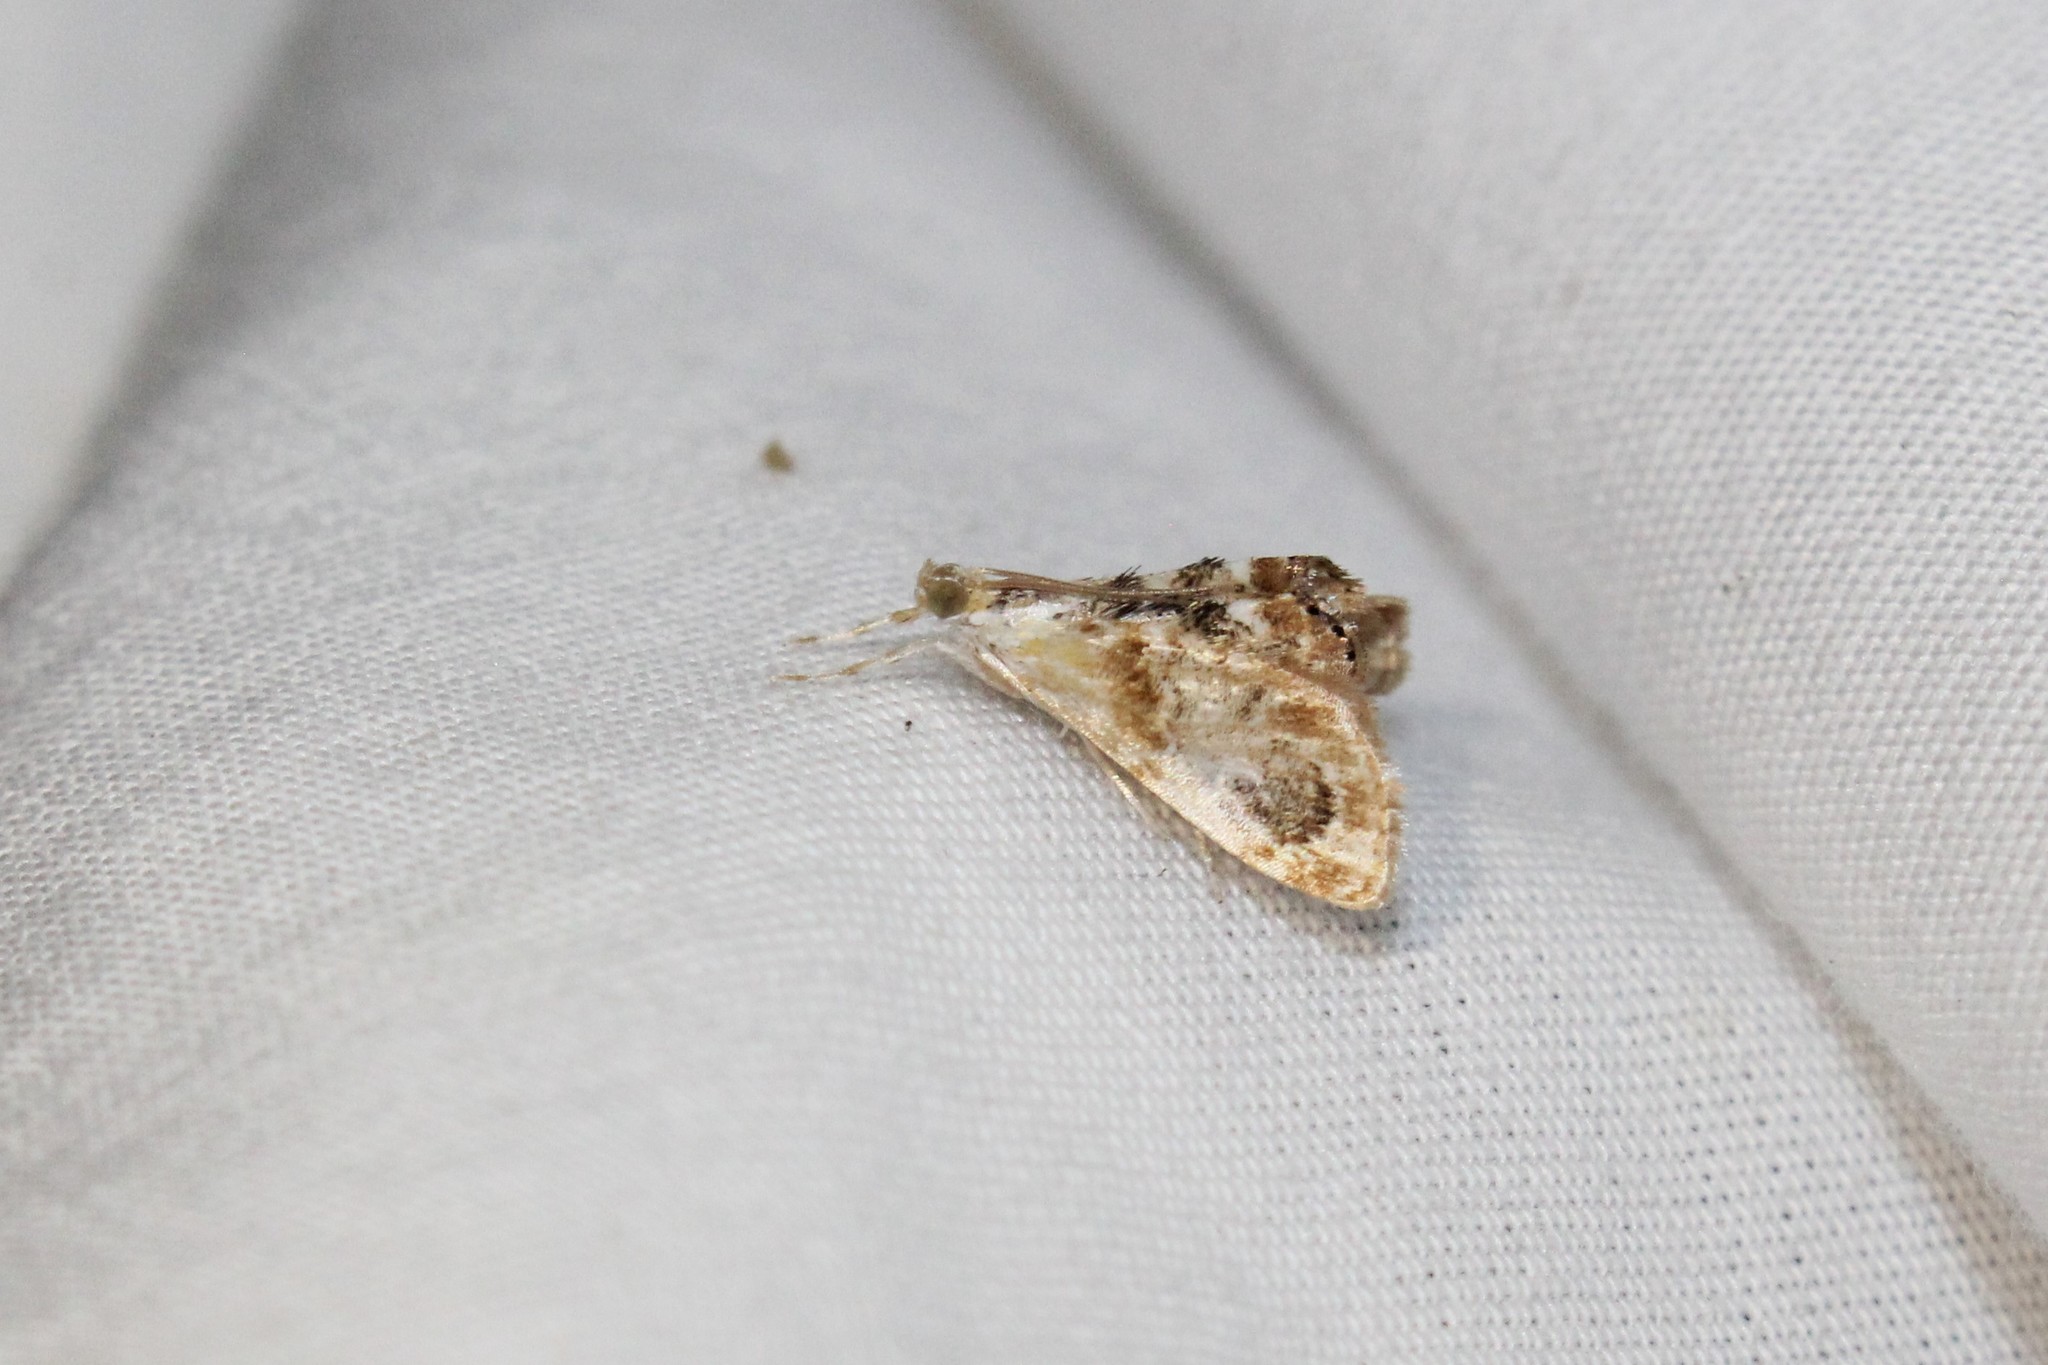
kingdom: Animalia
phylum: Arthropoda
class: Insecta
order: Lepidoptera
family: Crambidae
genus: Dicymolomia
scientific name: Dicymolomia julianalis
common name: Julia's dicymolomia moth
